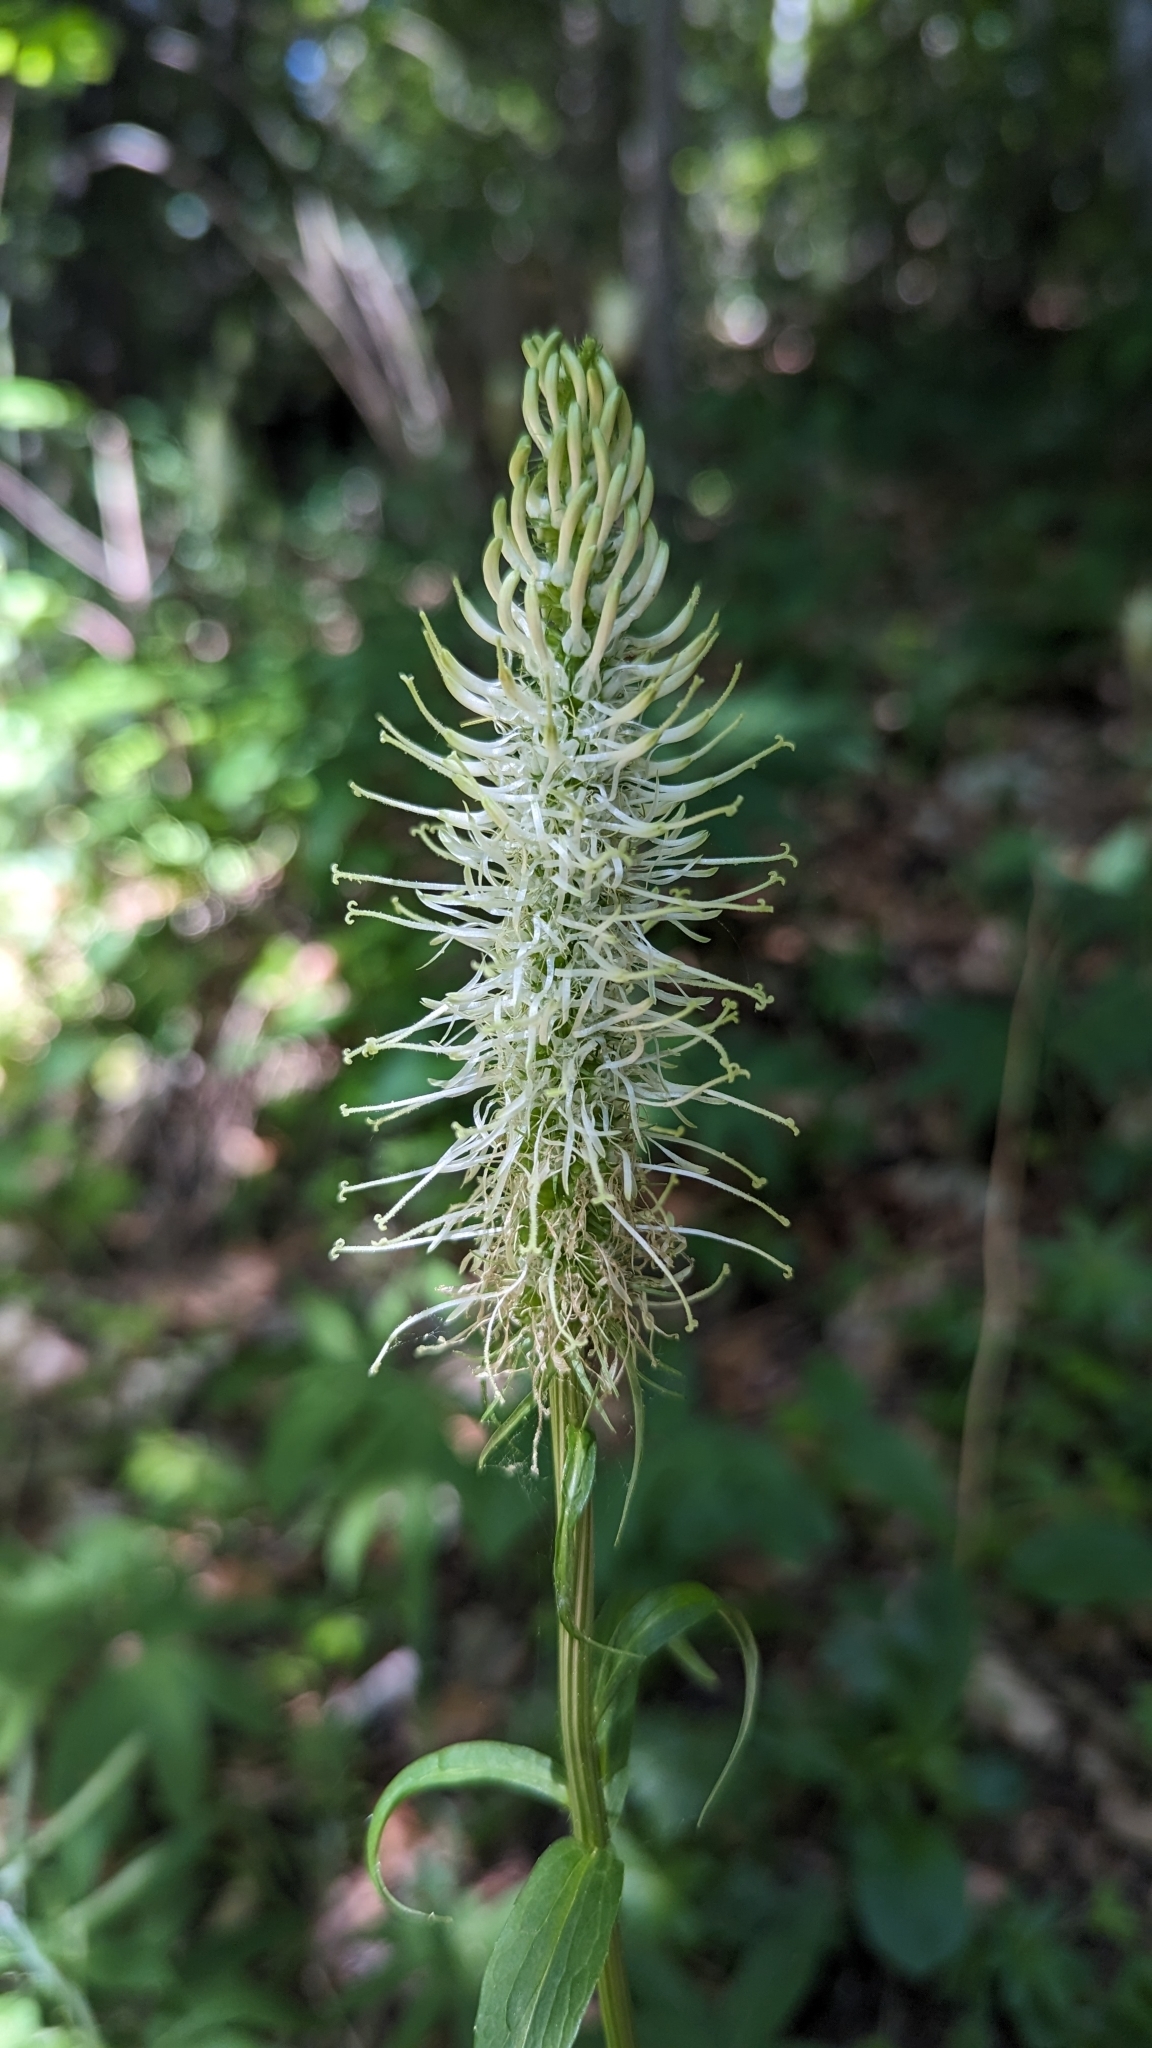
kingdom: Plantae
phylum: Tracheophyta
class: Magnoliopsida
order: Asterales
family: Campanulaceae
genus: Phyteuma
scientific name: Phyteuma spicatum
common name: Spiked rampion
